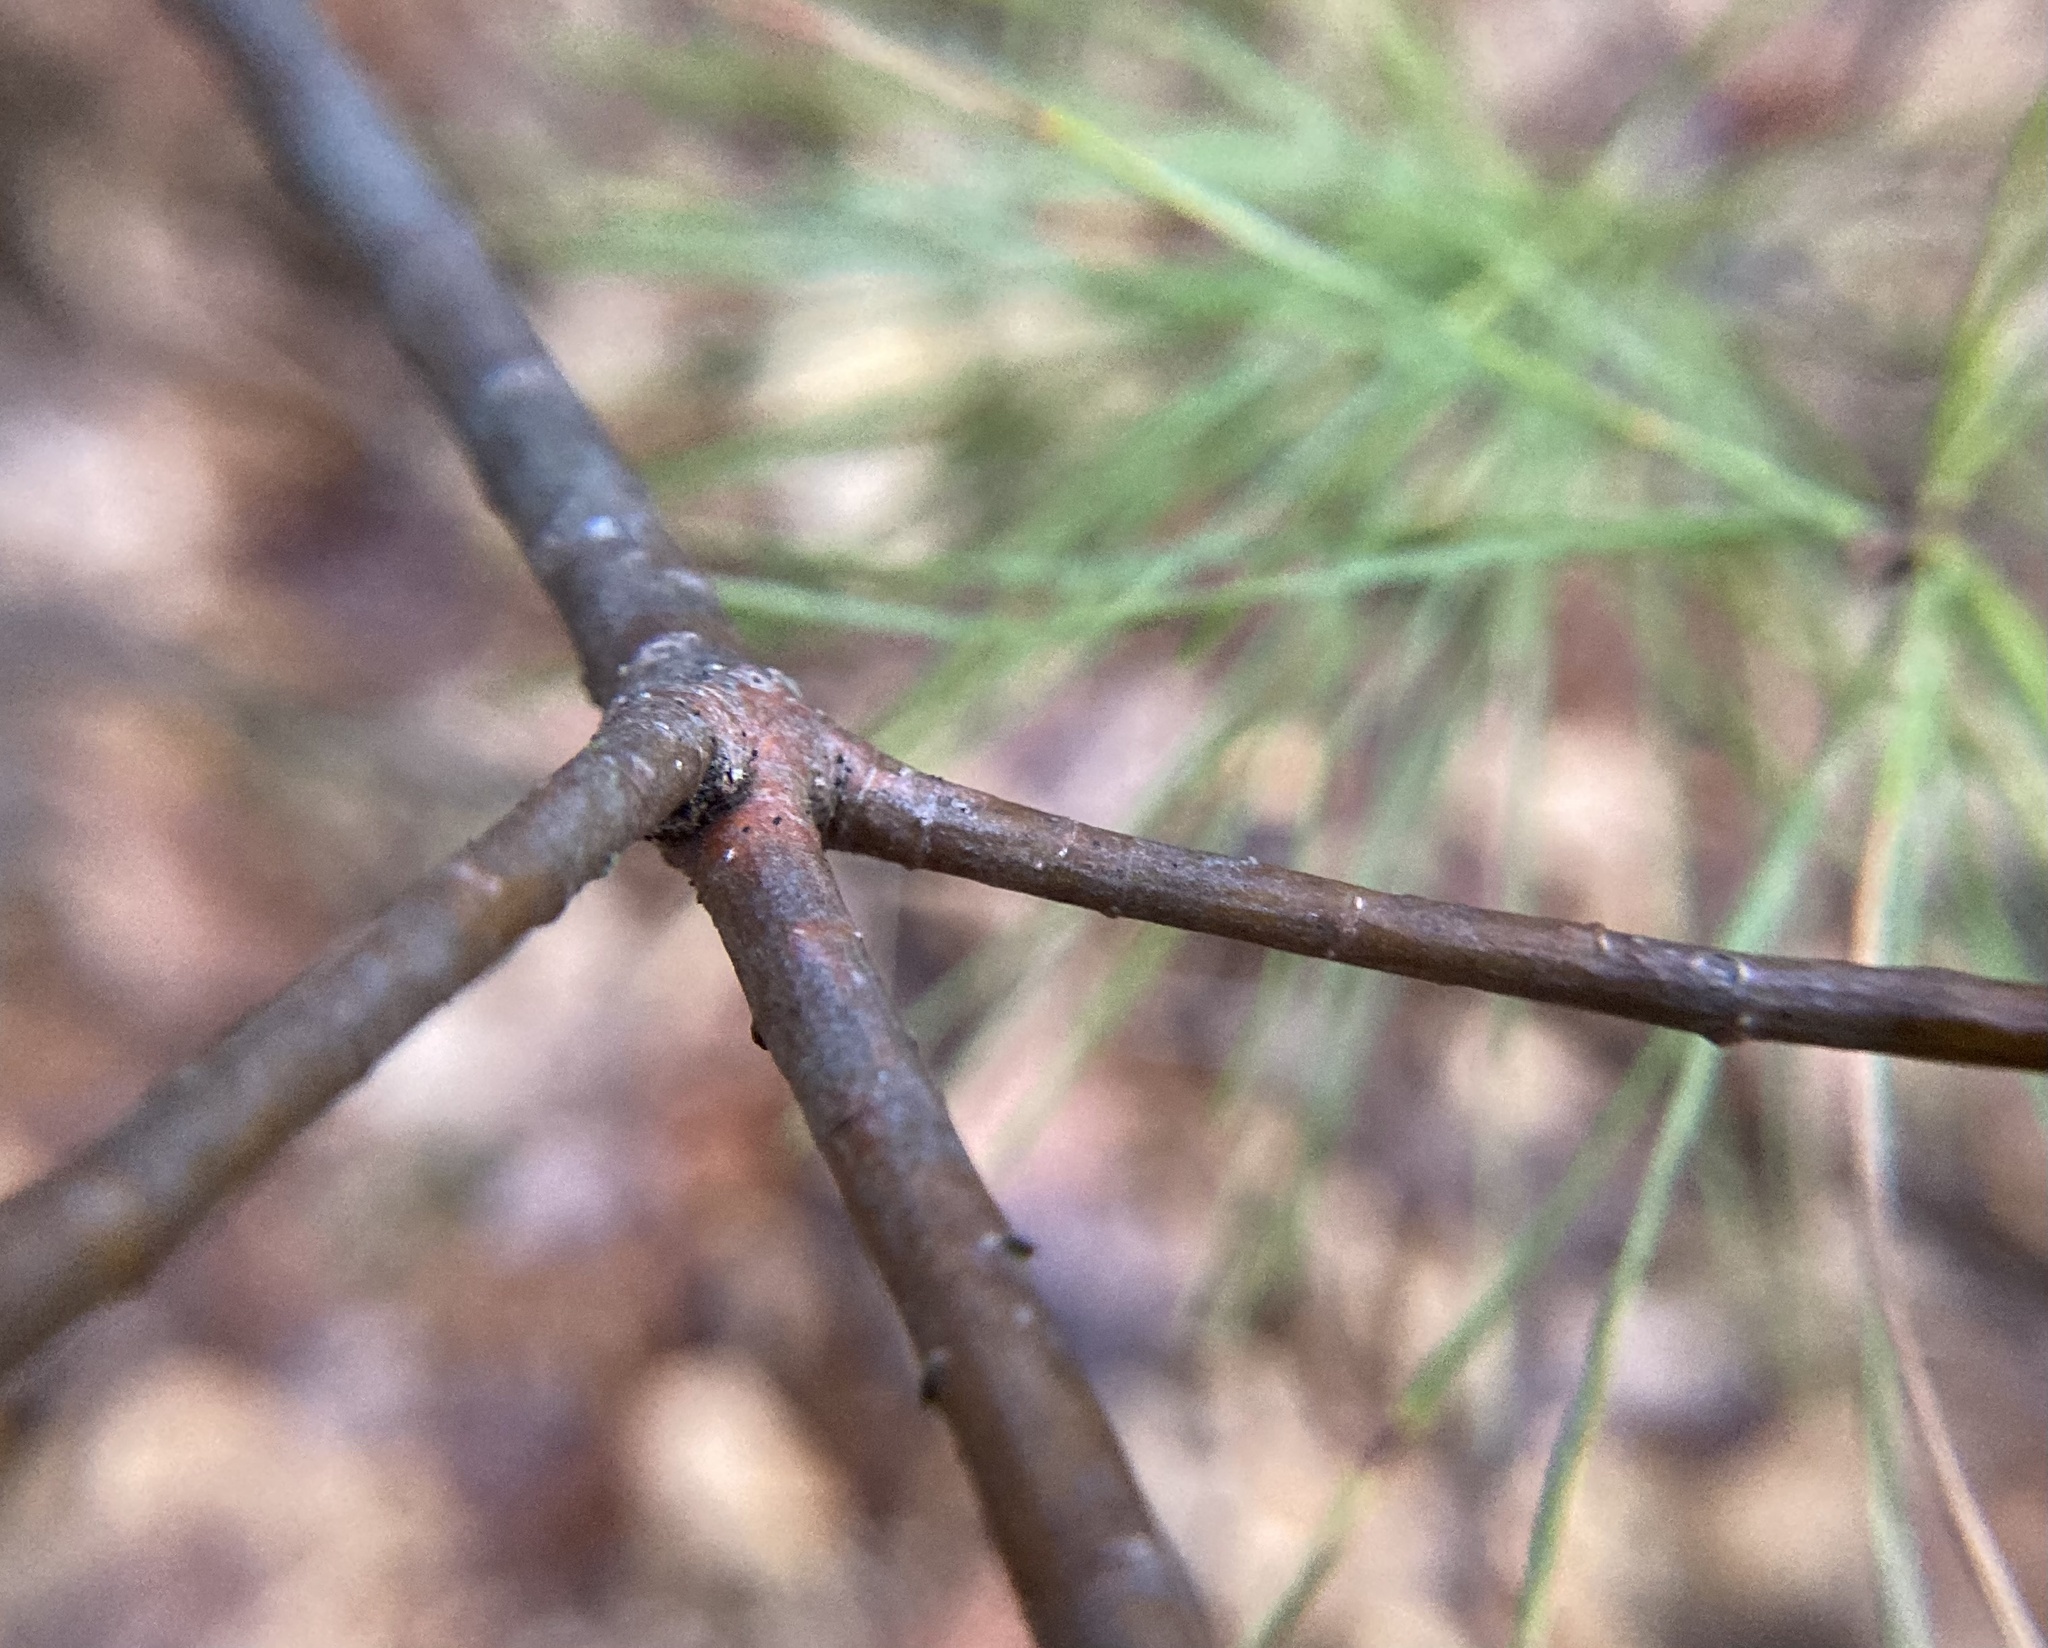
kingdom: Plantae
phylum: Tracheophyta
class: Pinopsida
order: Pinales
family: Pinaceae
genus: Pinus
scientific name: Pinus strobus
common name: Weymouth pine
